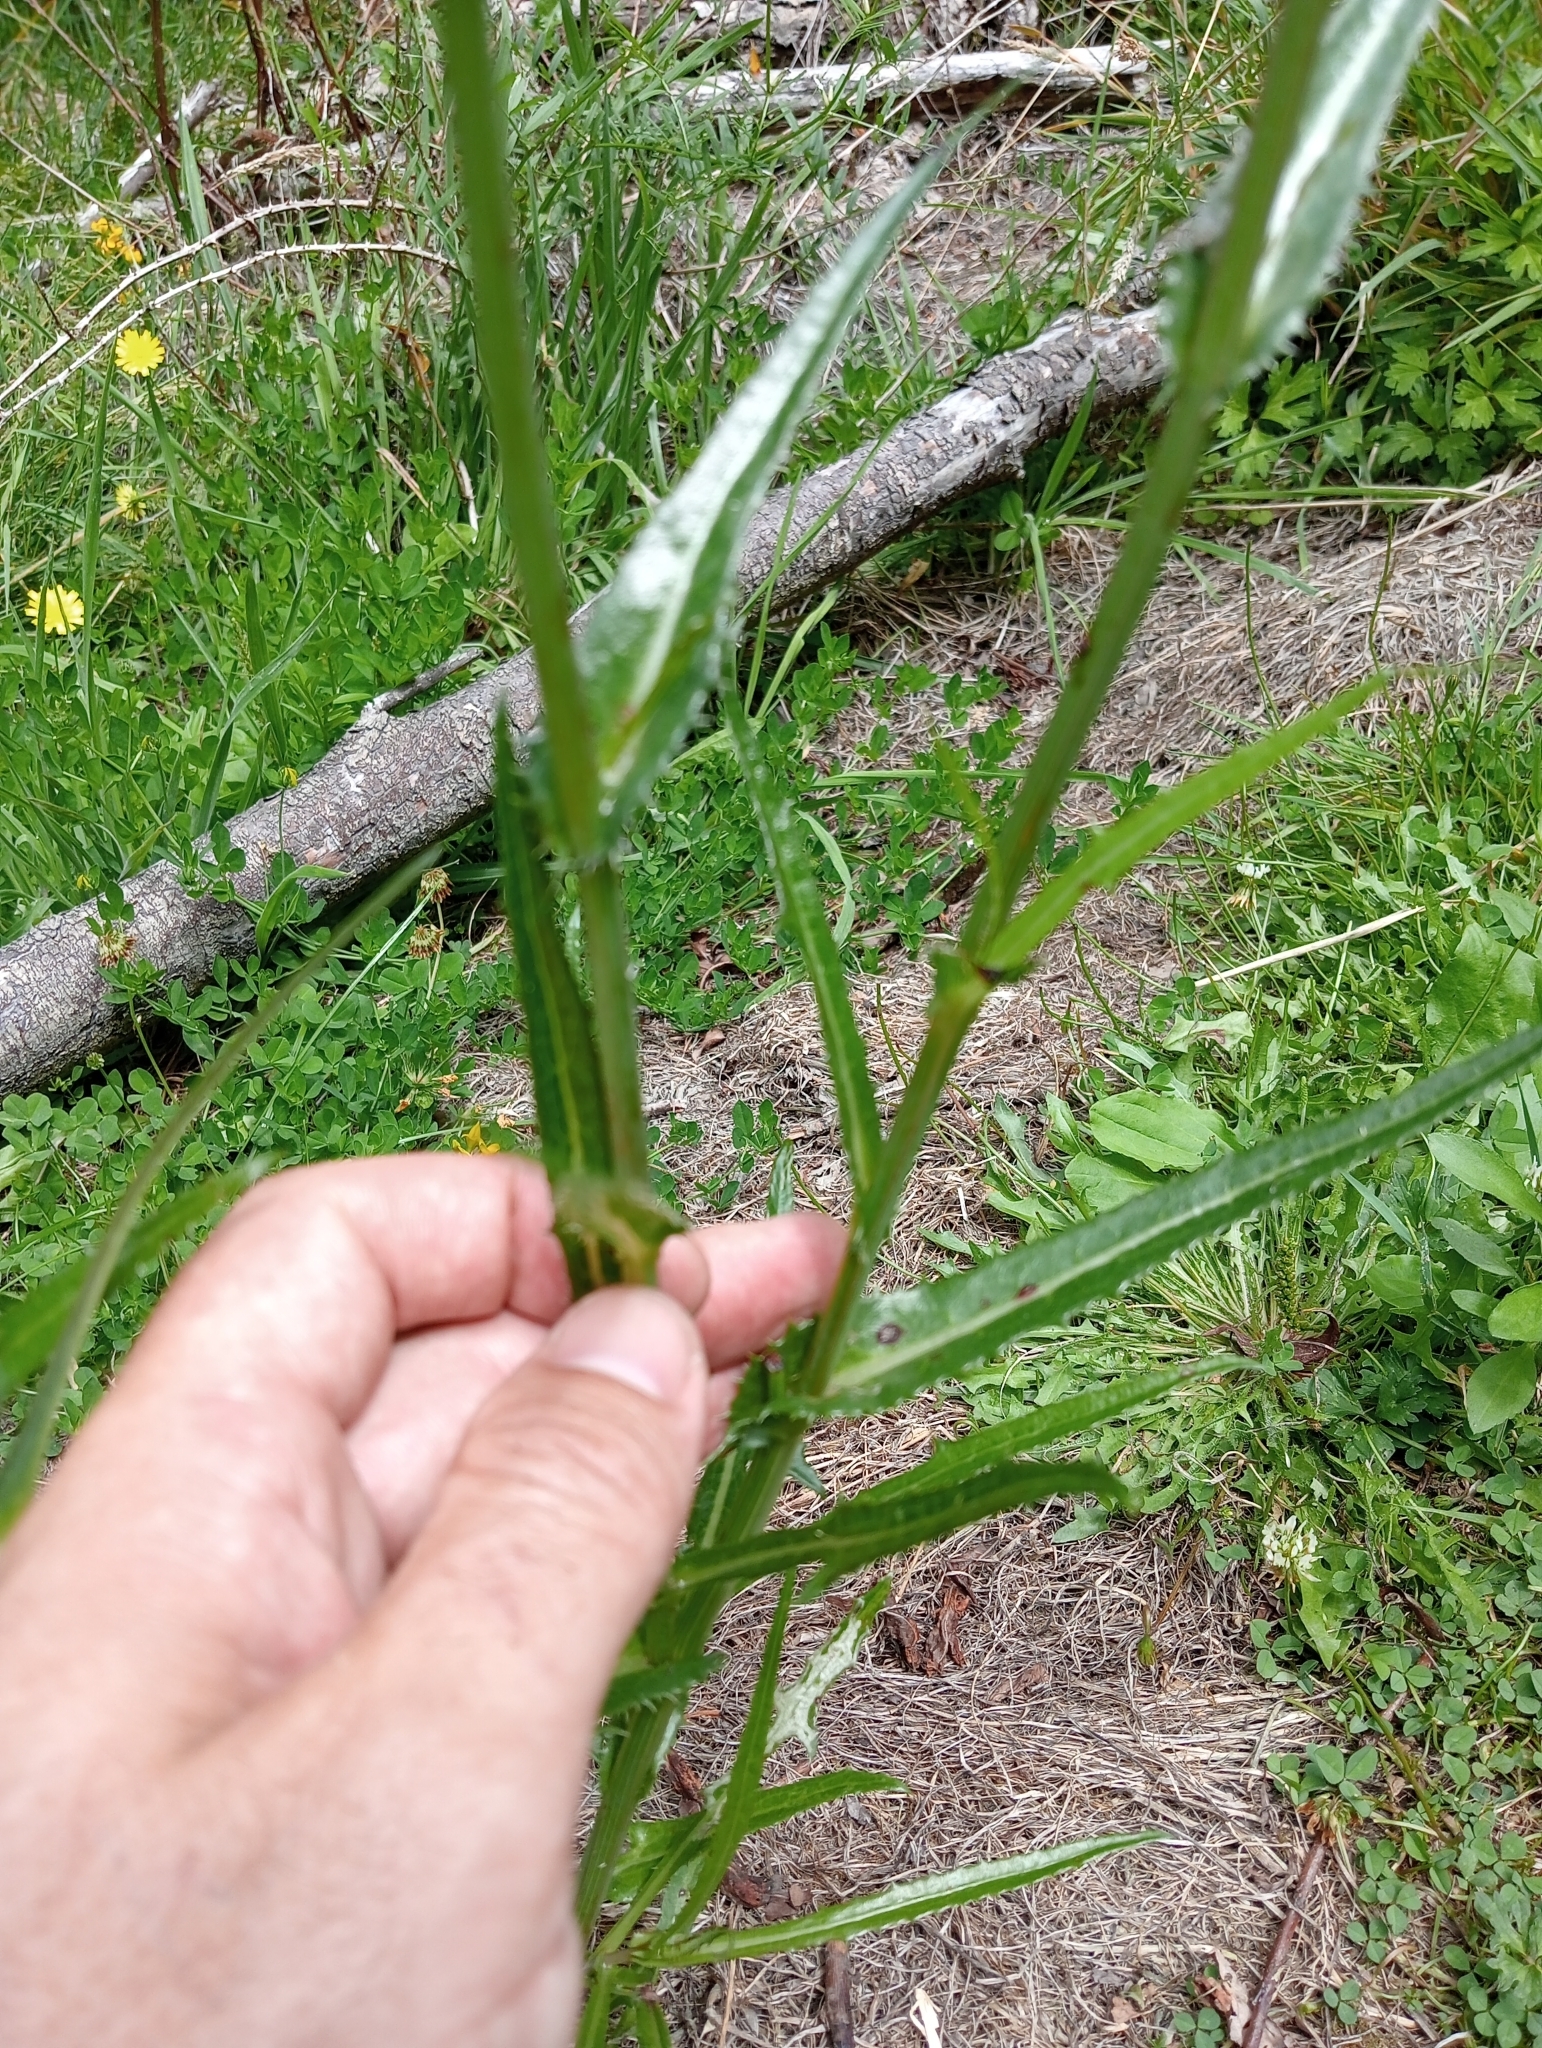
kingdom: Plantae
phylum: Tracheophyta
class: Magnoliopsida
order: Asterales
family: Asteraceae
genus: Sonchus
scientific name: Sonchus asper
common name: Prickly sow-thistle
